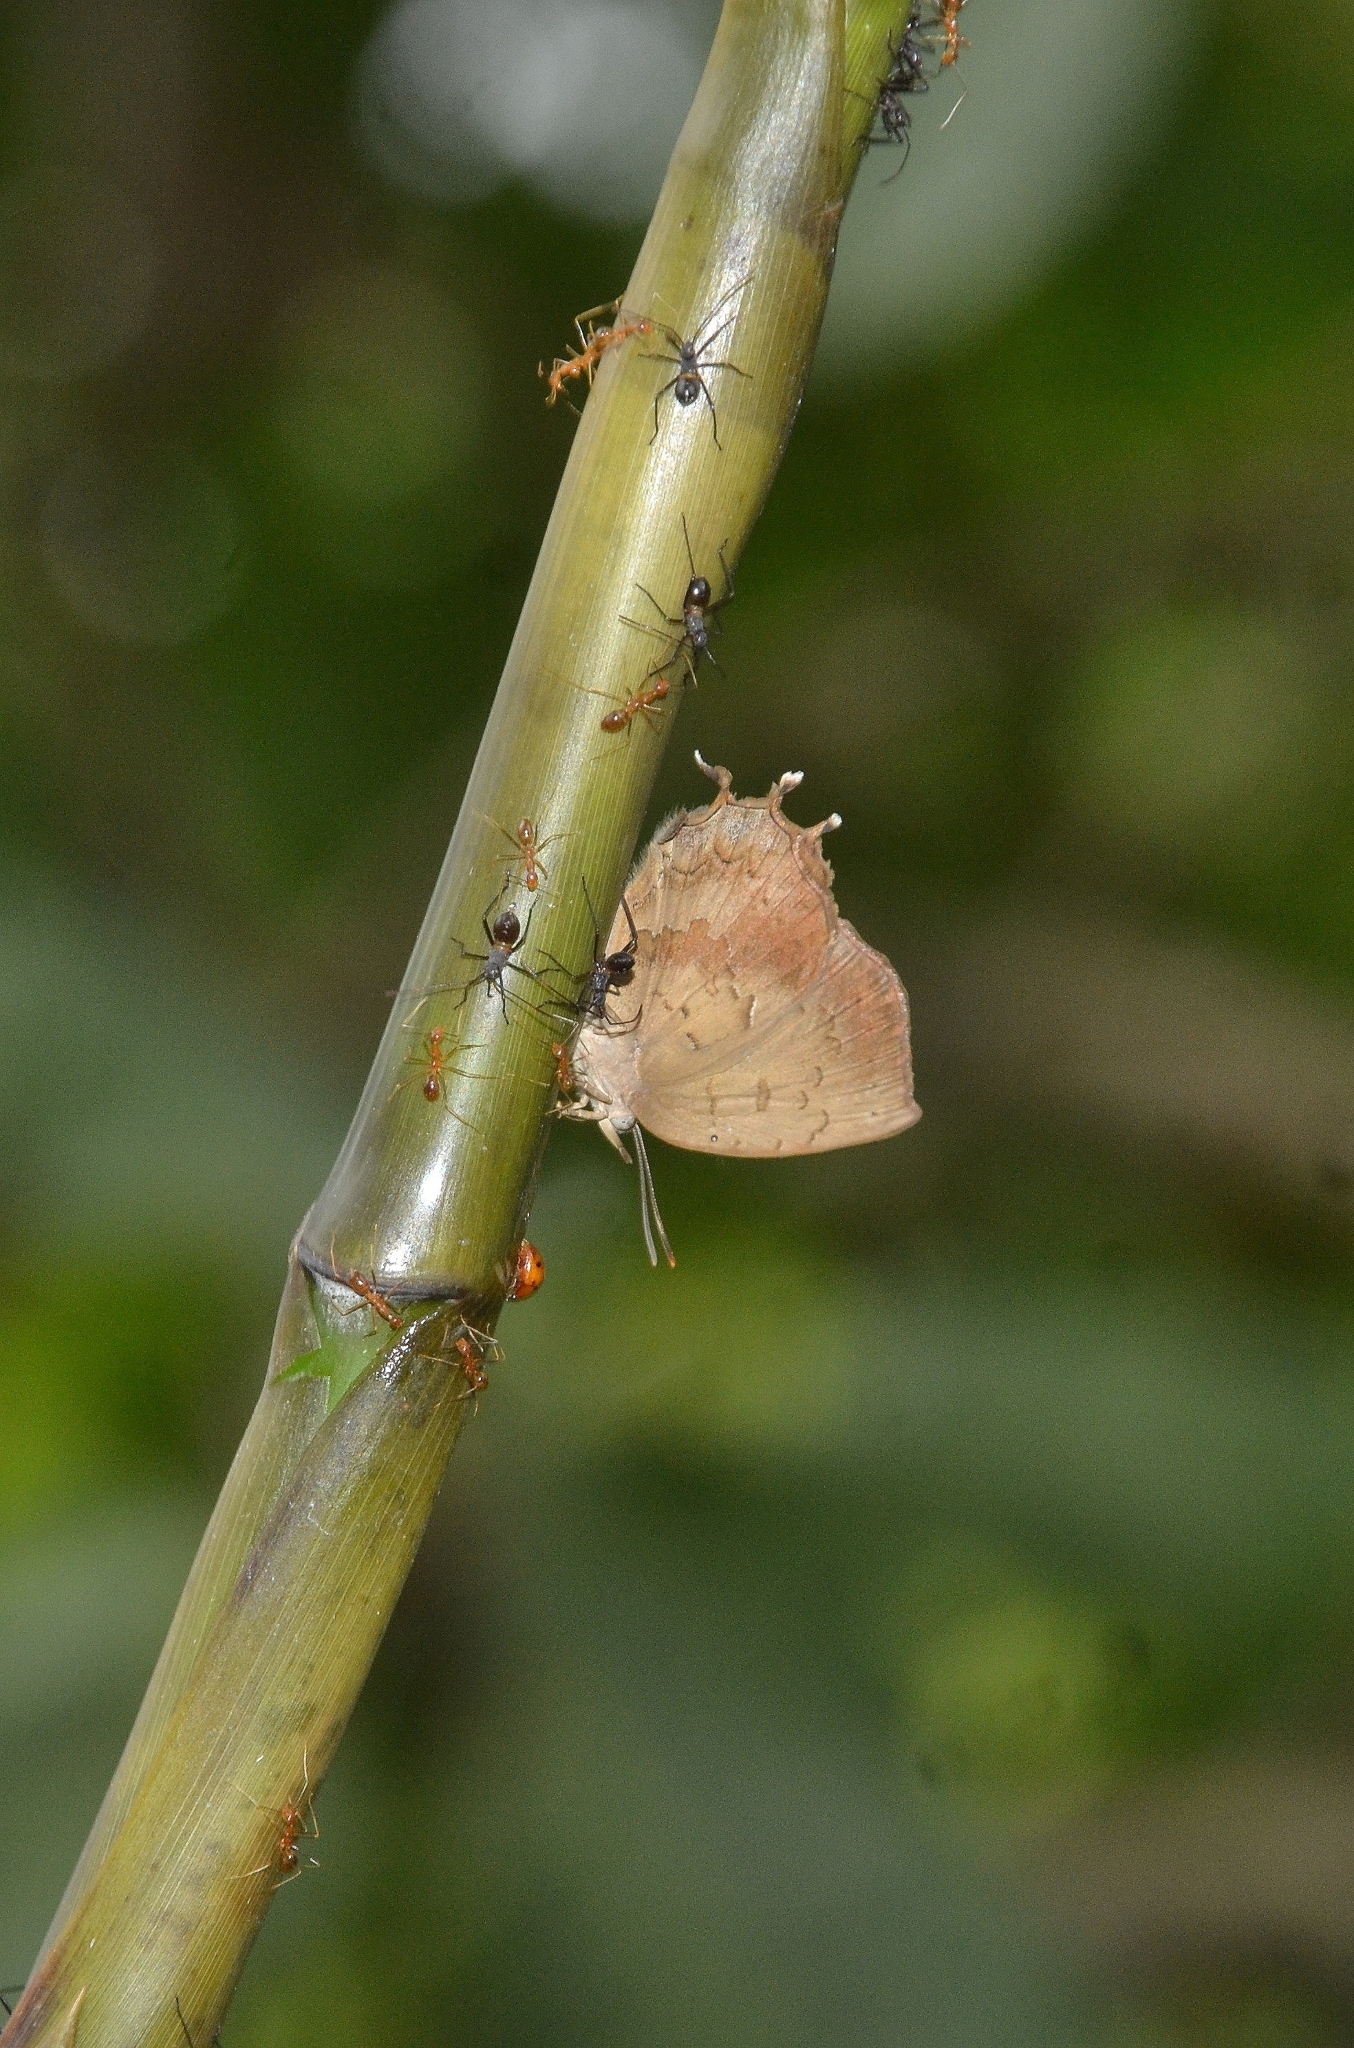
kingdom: Animalia
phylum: Arthropoda
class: Insecta
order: Lepidoptera
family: Lycaenidae
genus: Surendra
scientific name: Surendra quercetorum
